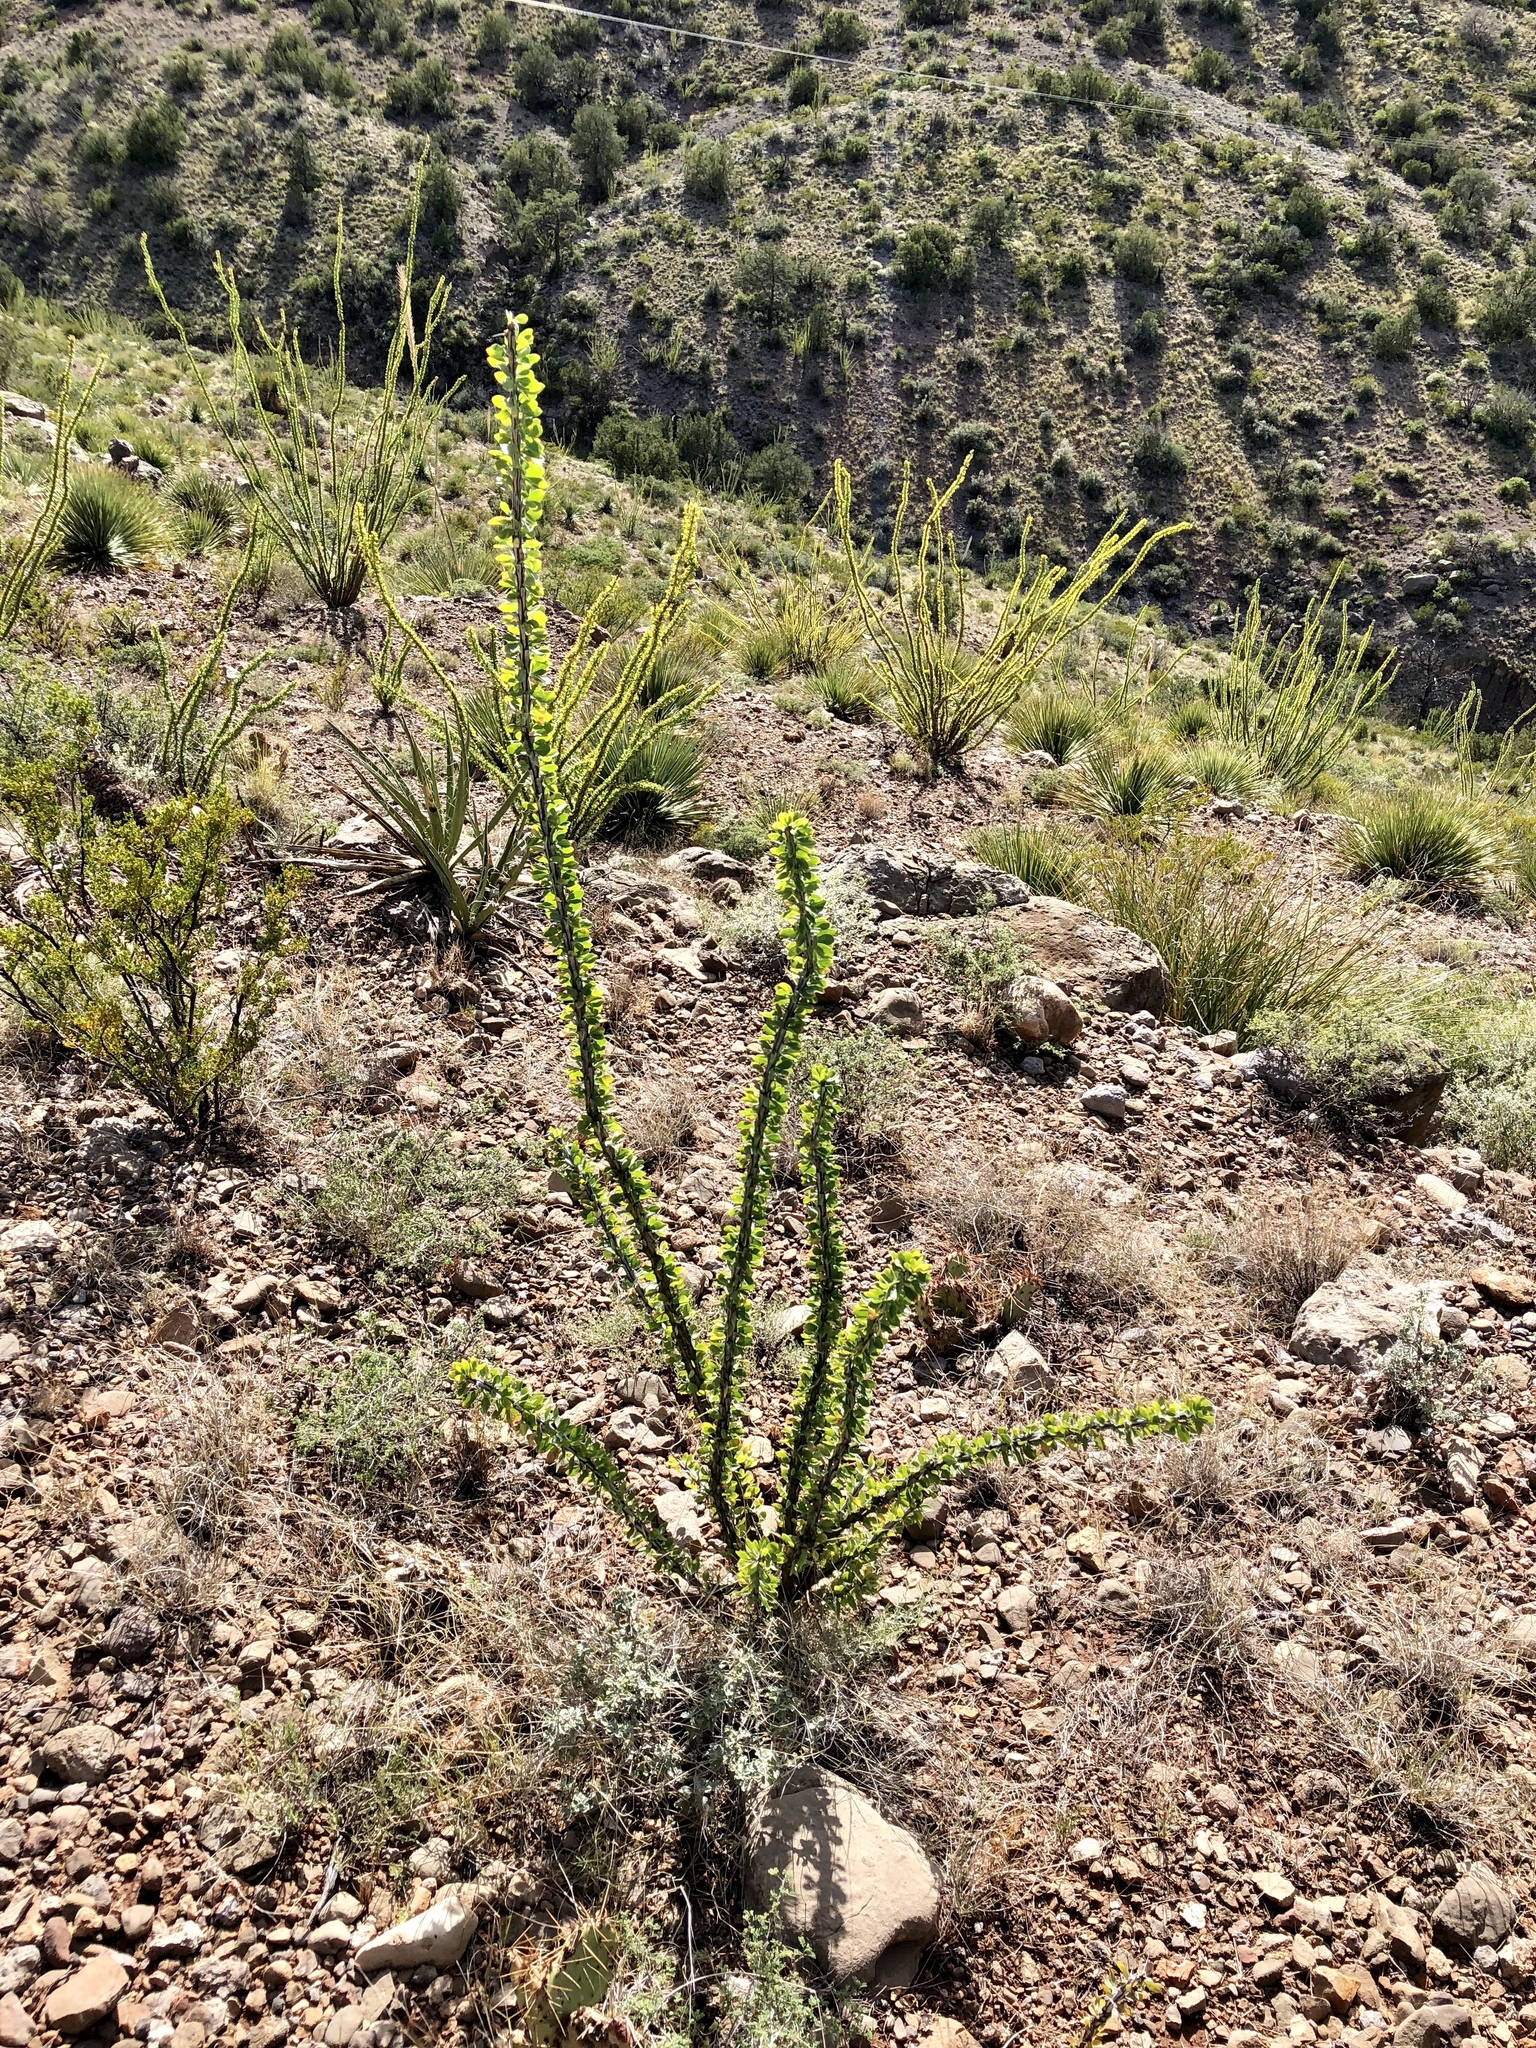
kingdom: Plantae
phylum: Tracheophyta
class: Magnoliopsida
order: Ericales
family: Fouquieriaceae
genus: Fouquieria
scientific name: Fouquieria splendens
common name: Vine-cactus
